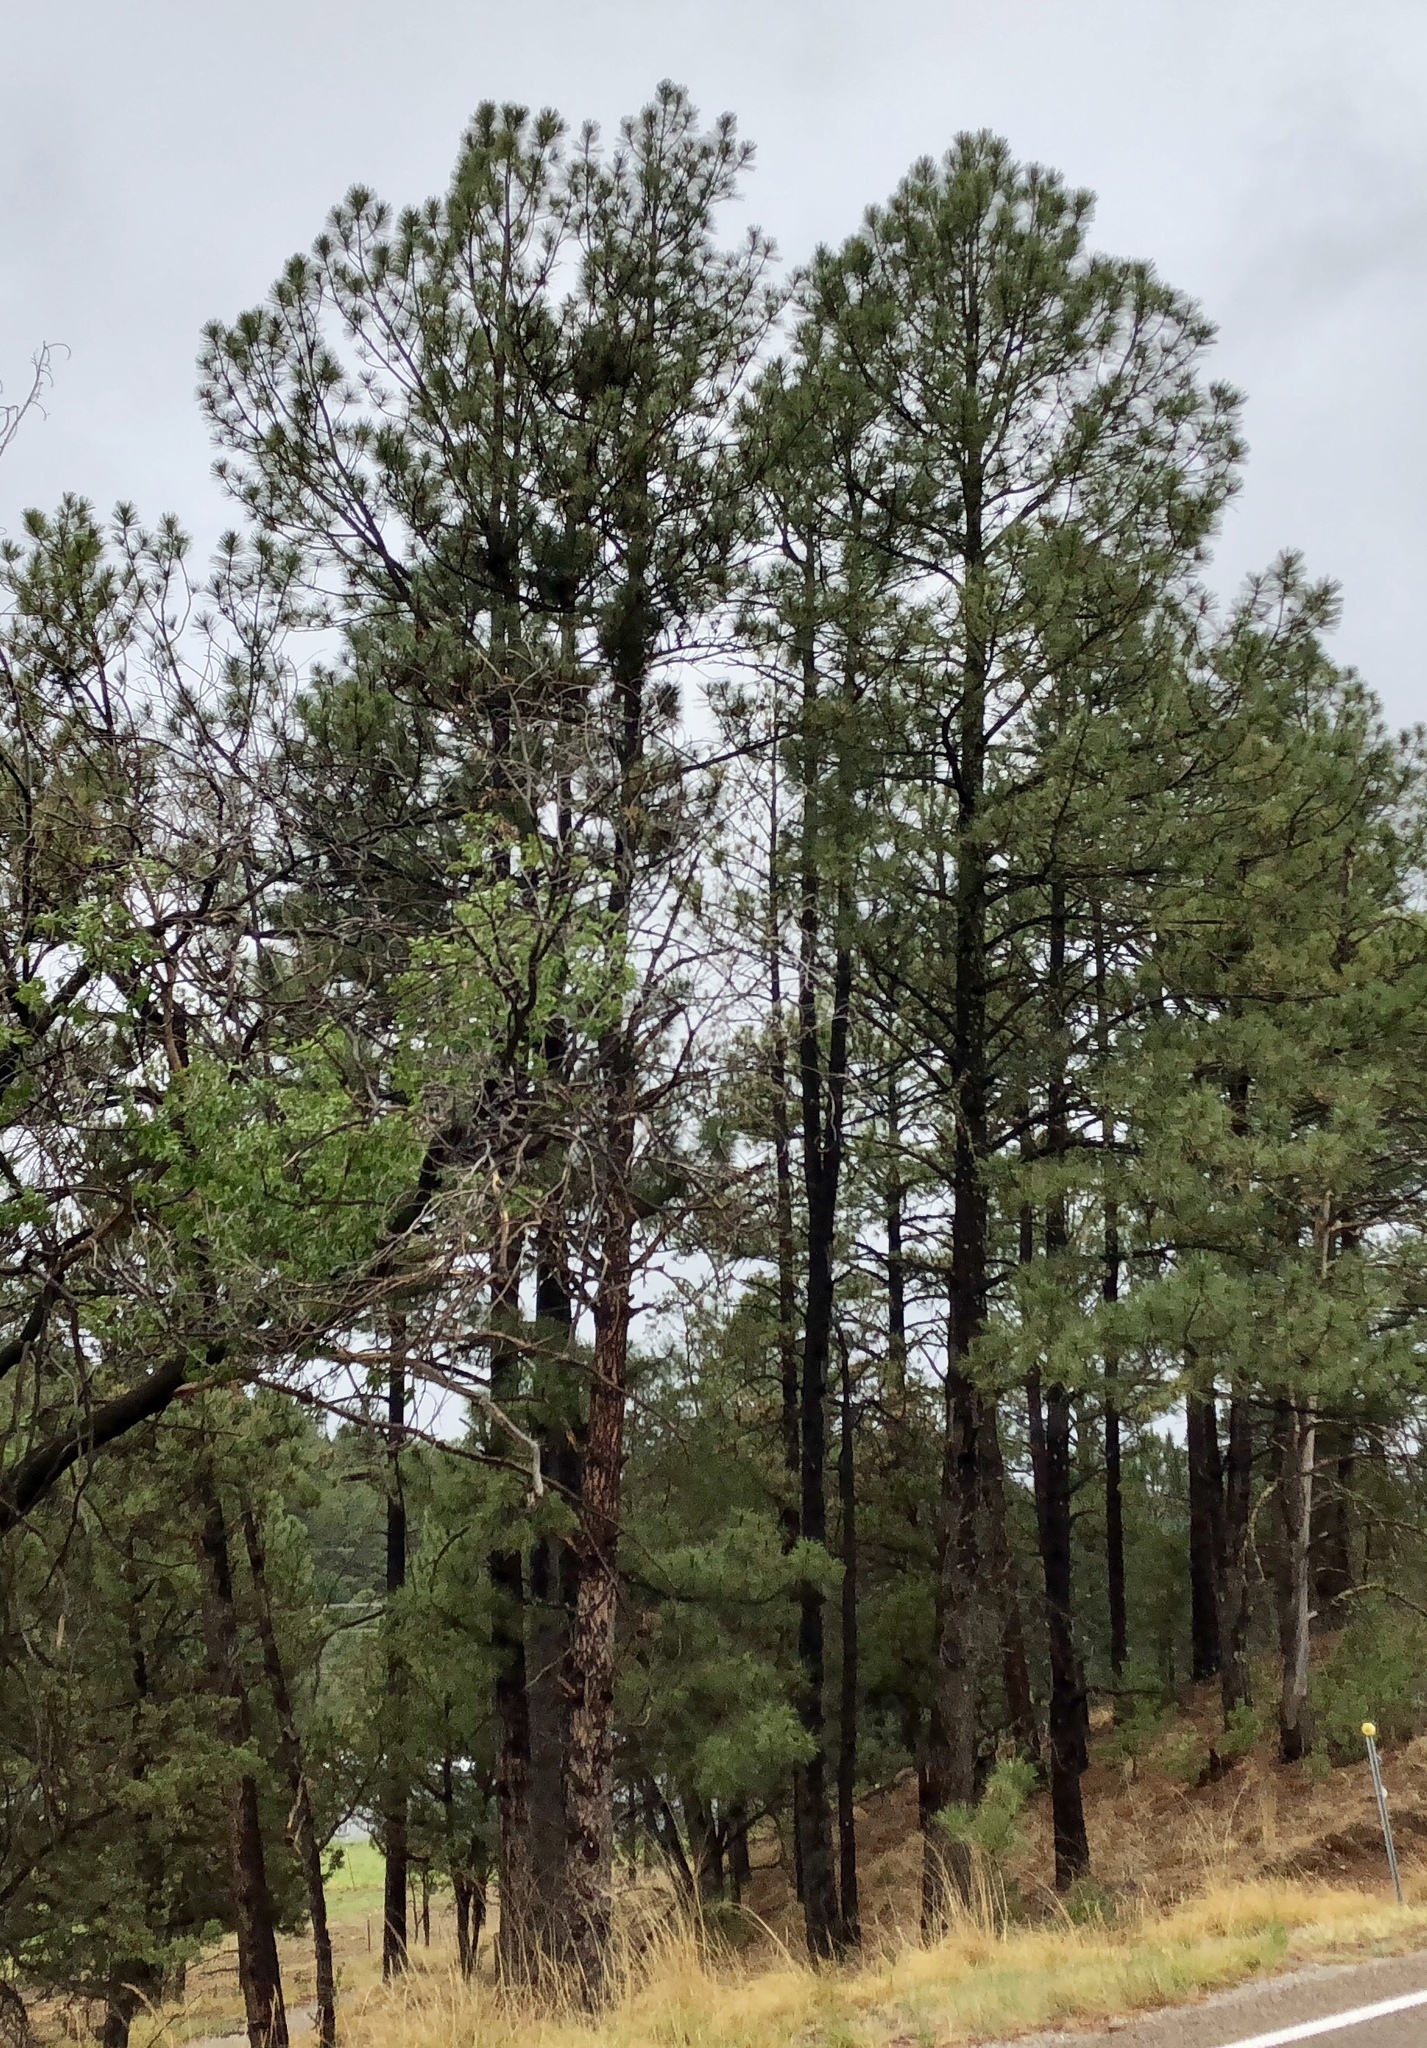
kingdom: Plantae
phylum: Tracheophyta
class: Pinopsida
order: Pinales
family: Pinaceae
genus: Pinus
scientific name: Pinus ponderosa
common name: Western yellow-pine
